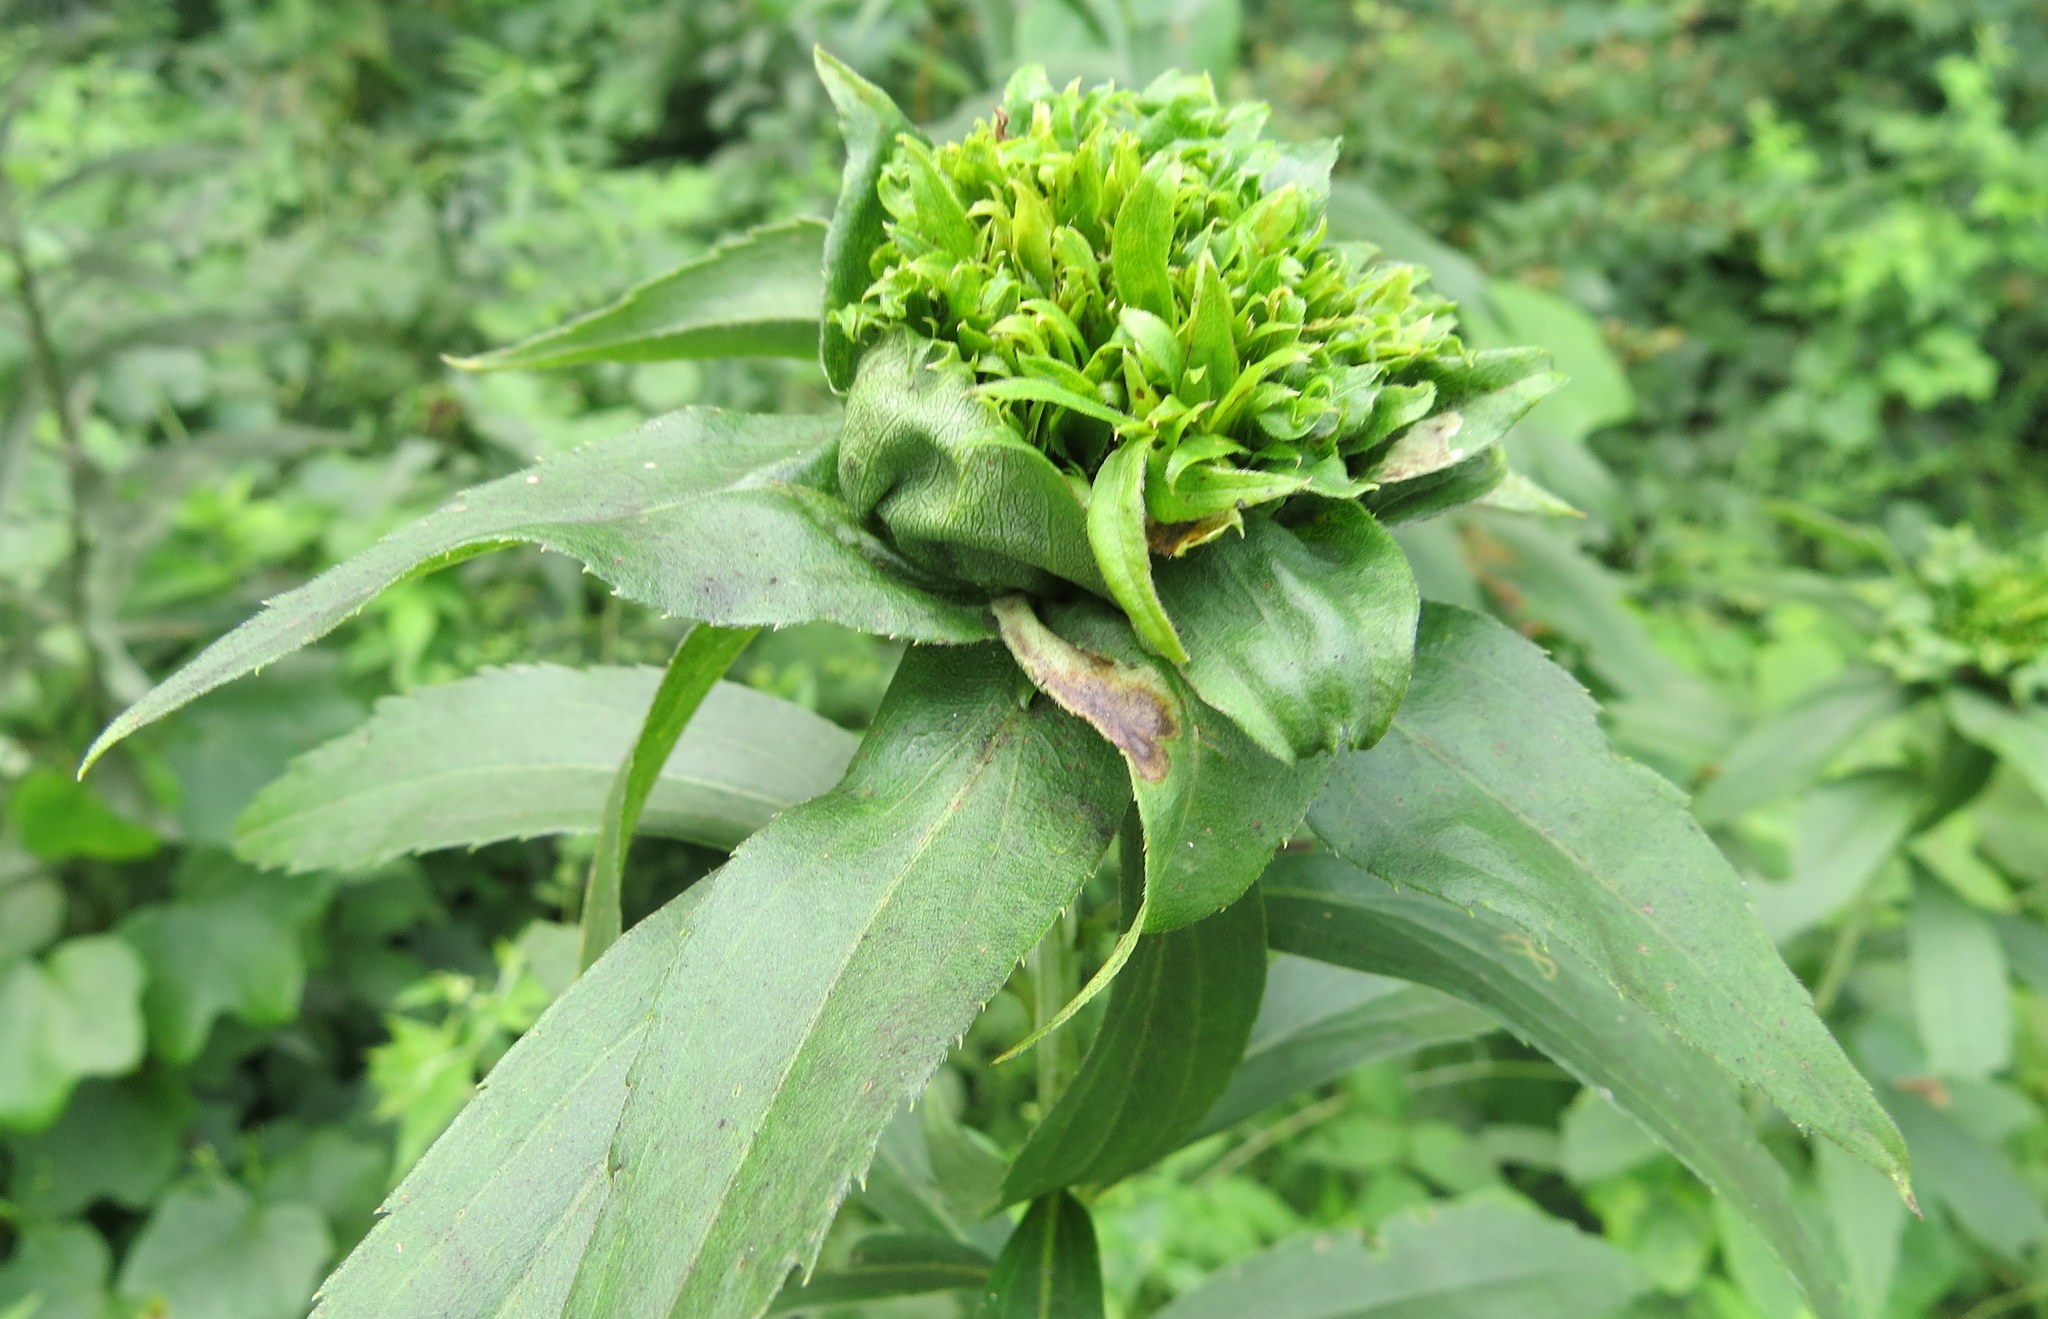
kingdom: Animalia
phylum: Arthropoda
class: Insecta
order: Diptera
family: Cecidomyiidae
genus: Rhopalomyia
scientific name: Rhopalomyia capitata
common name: Giant goldenrod bunch gall midge
